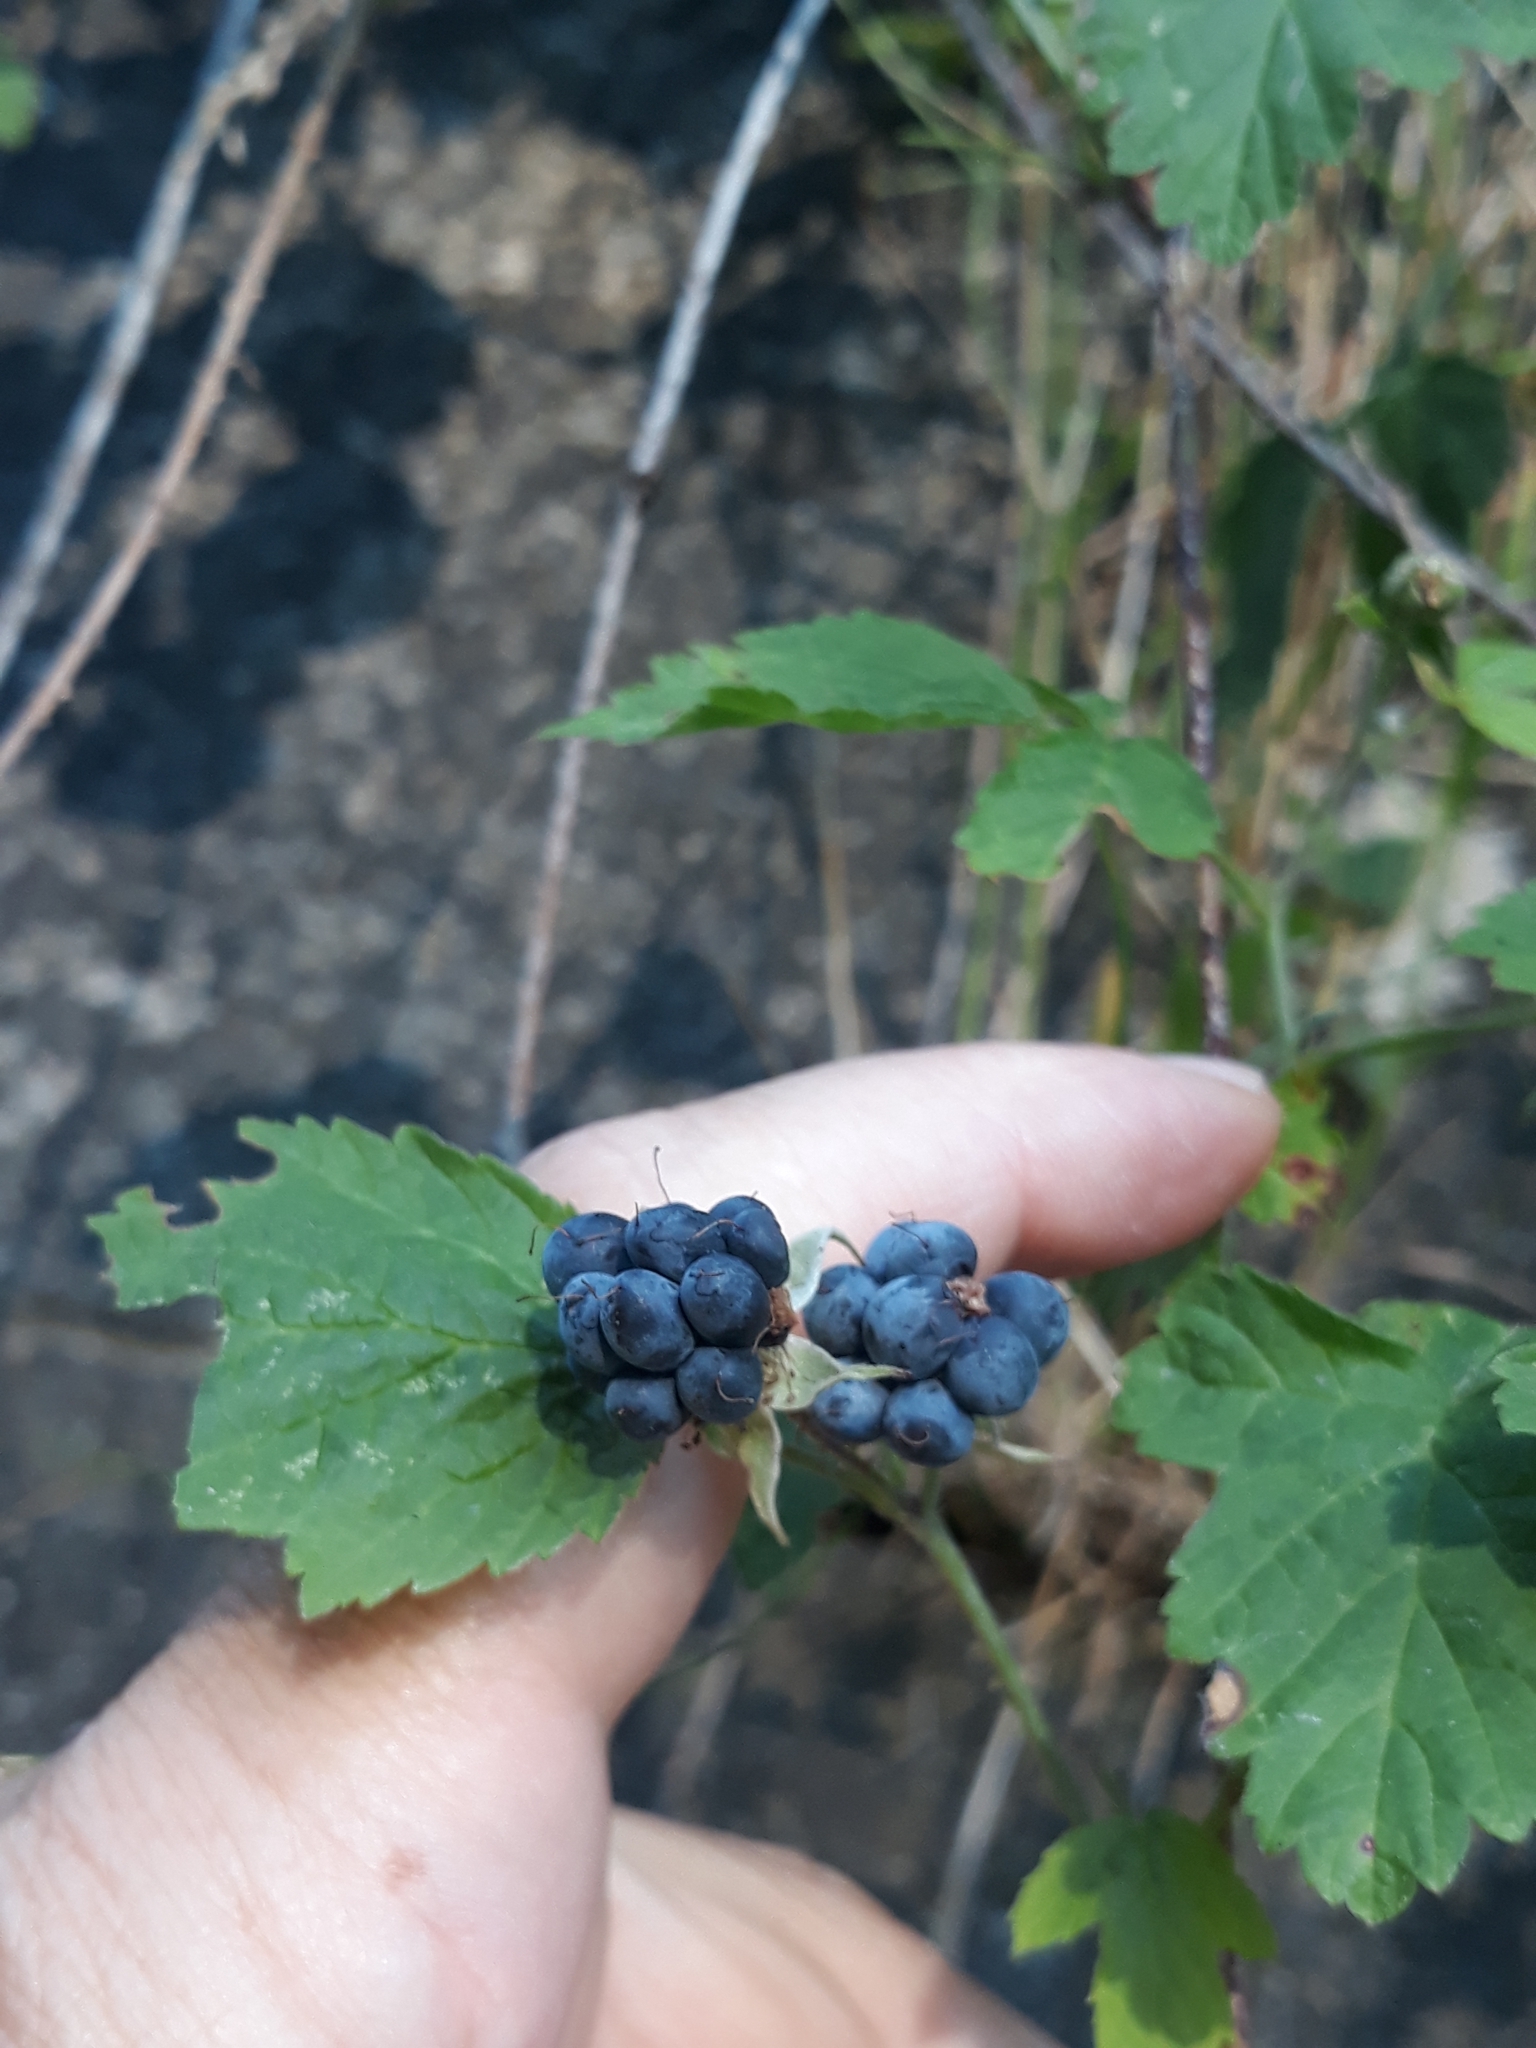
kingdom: Plantae
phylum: Tracheophyta
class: Magnoliopsida
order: Rosales
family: Rosaceae
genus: Rubus
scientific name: Rubus caesius
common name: Dewberry
